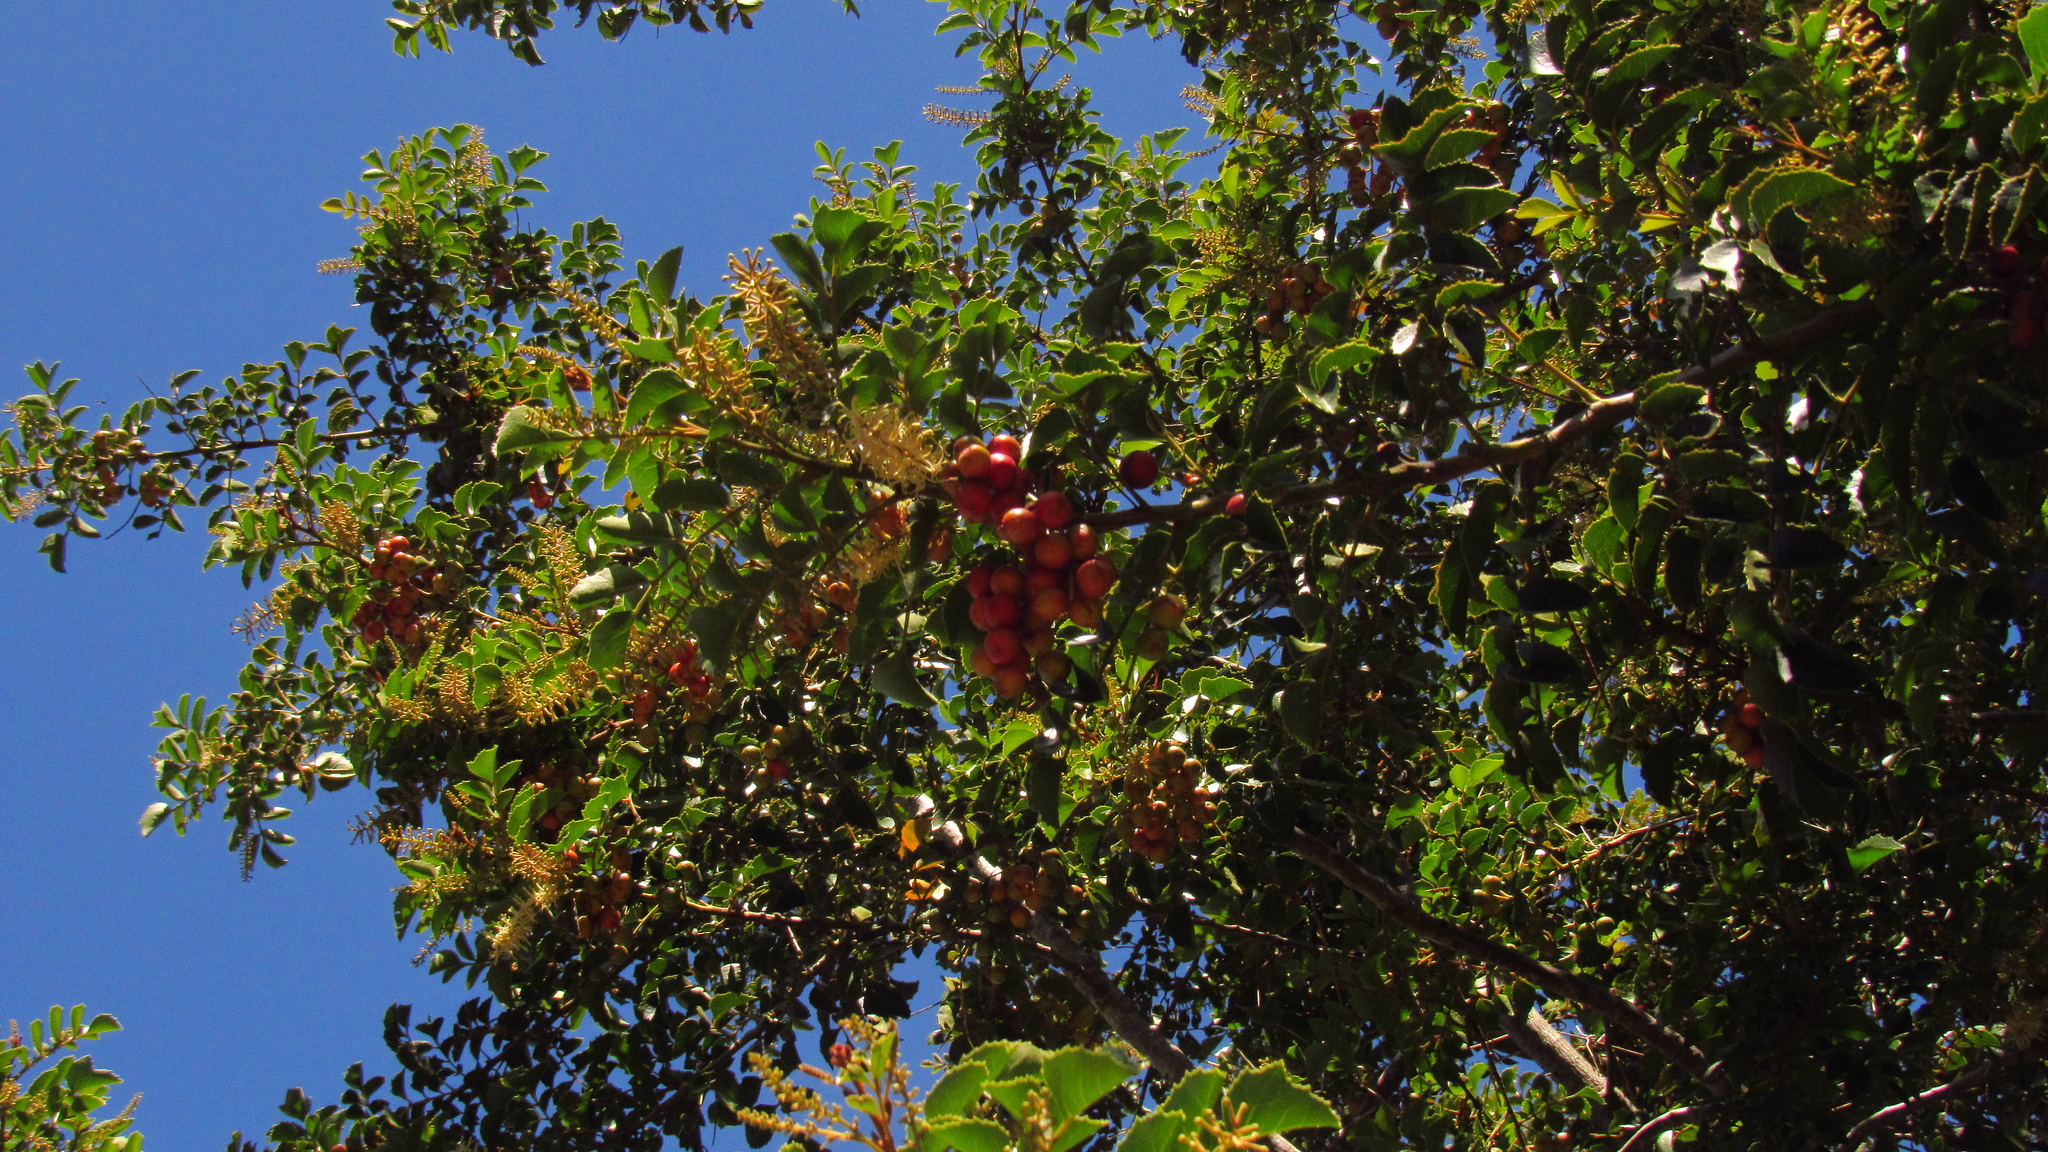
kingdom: Plantae
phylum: Tracheophyta
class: Magnoliopsida
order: Proteales
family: Proteaceae
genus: Gevuina
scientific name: Gevuina avellana
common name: Chilean hazel
